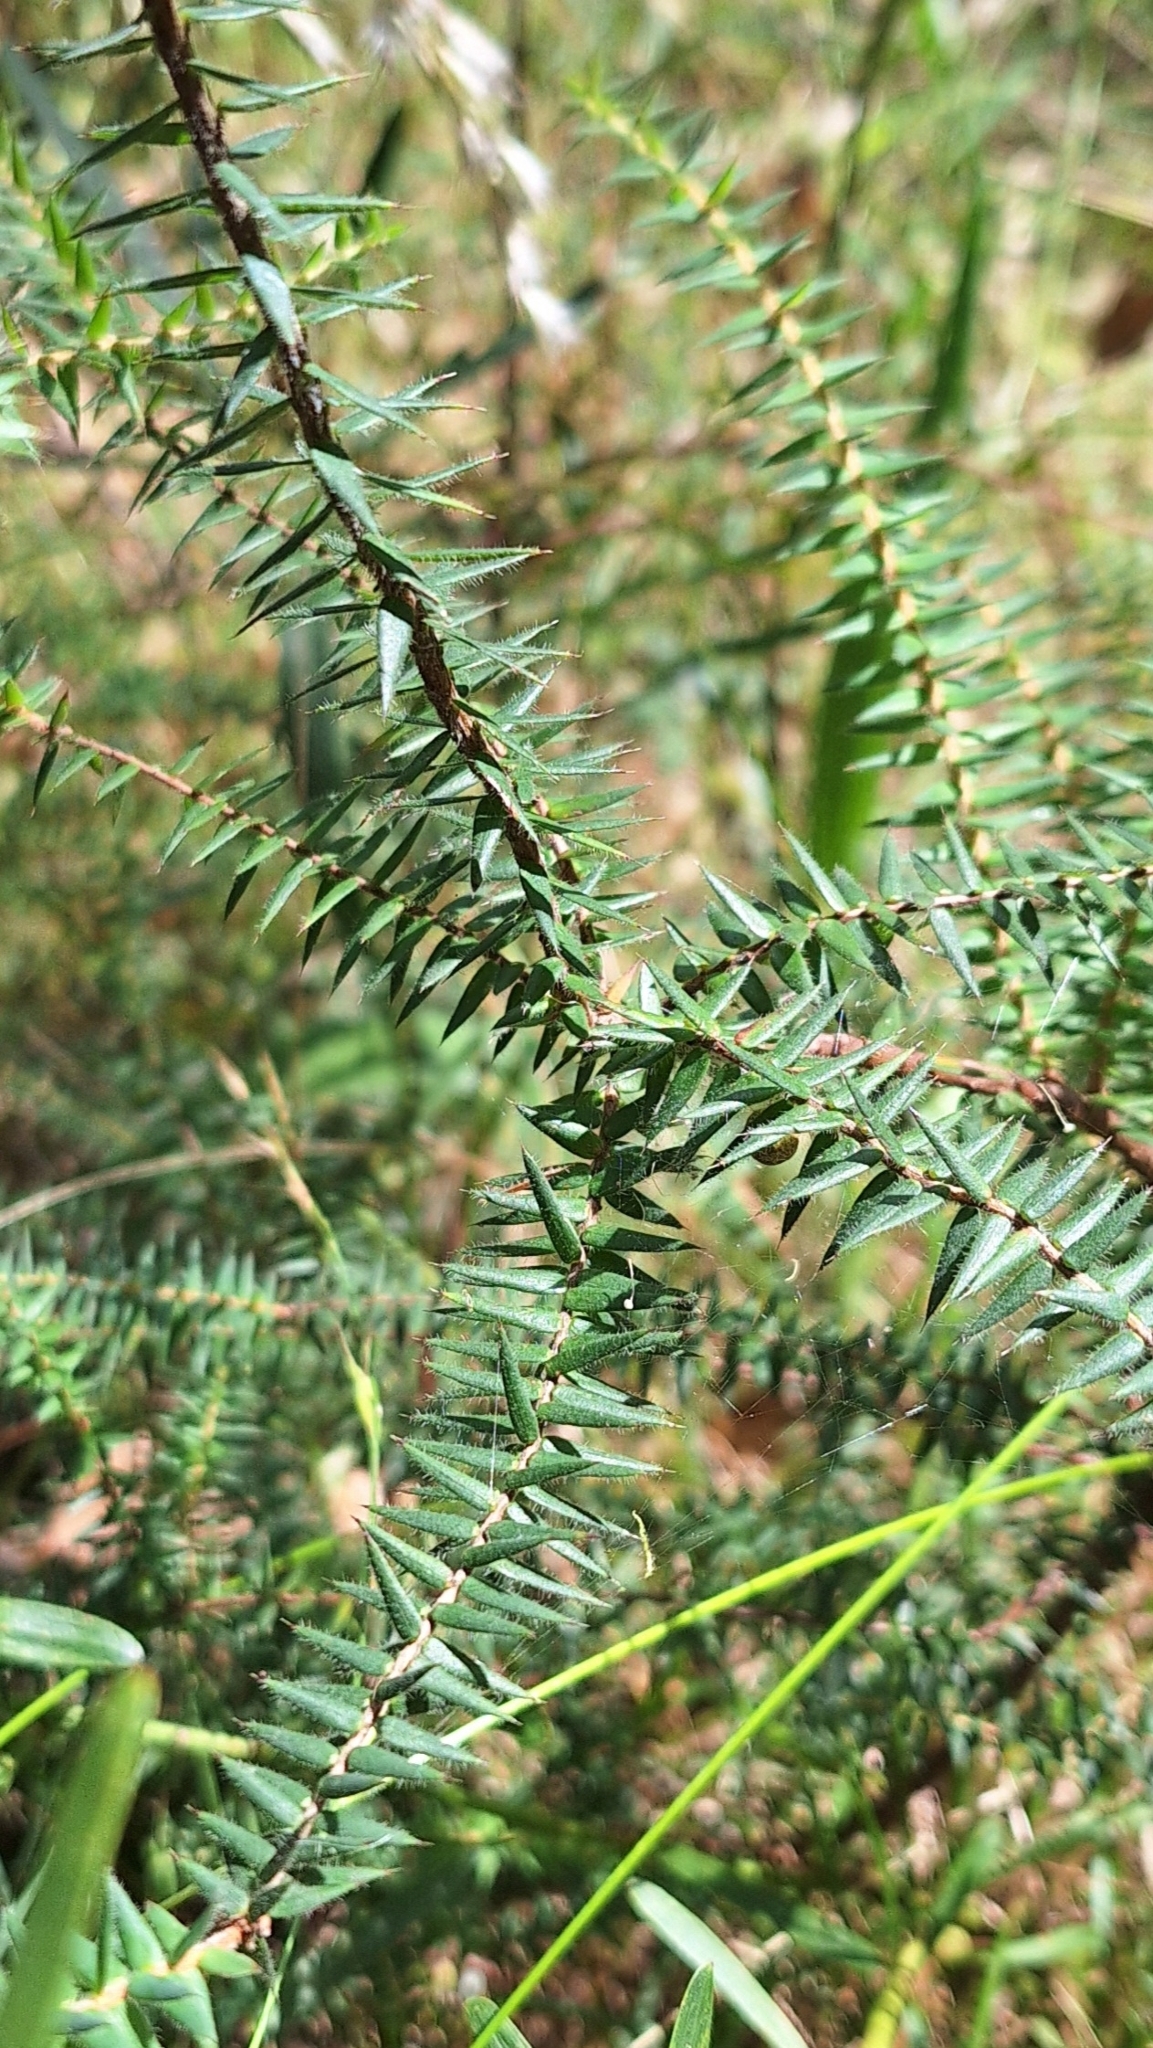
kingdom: Plantae
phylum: Tracheophyta
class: Magnoliopsida
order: Ericales
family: Ericaceae
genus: Acrotriche
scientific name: Acrotriche fasciculiflora
